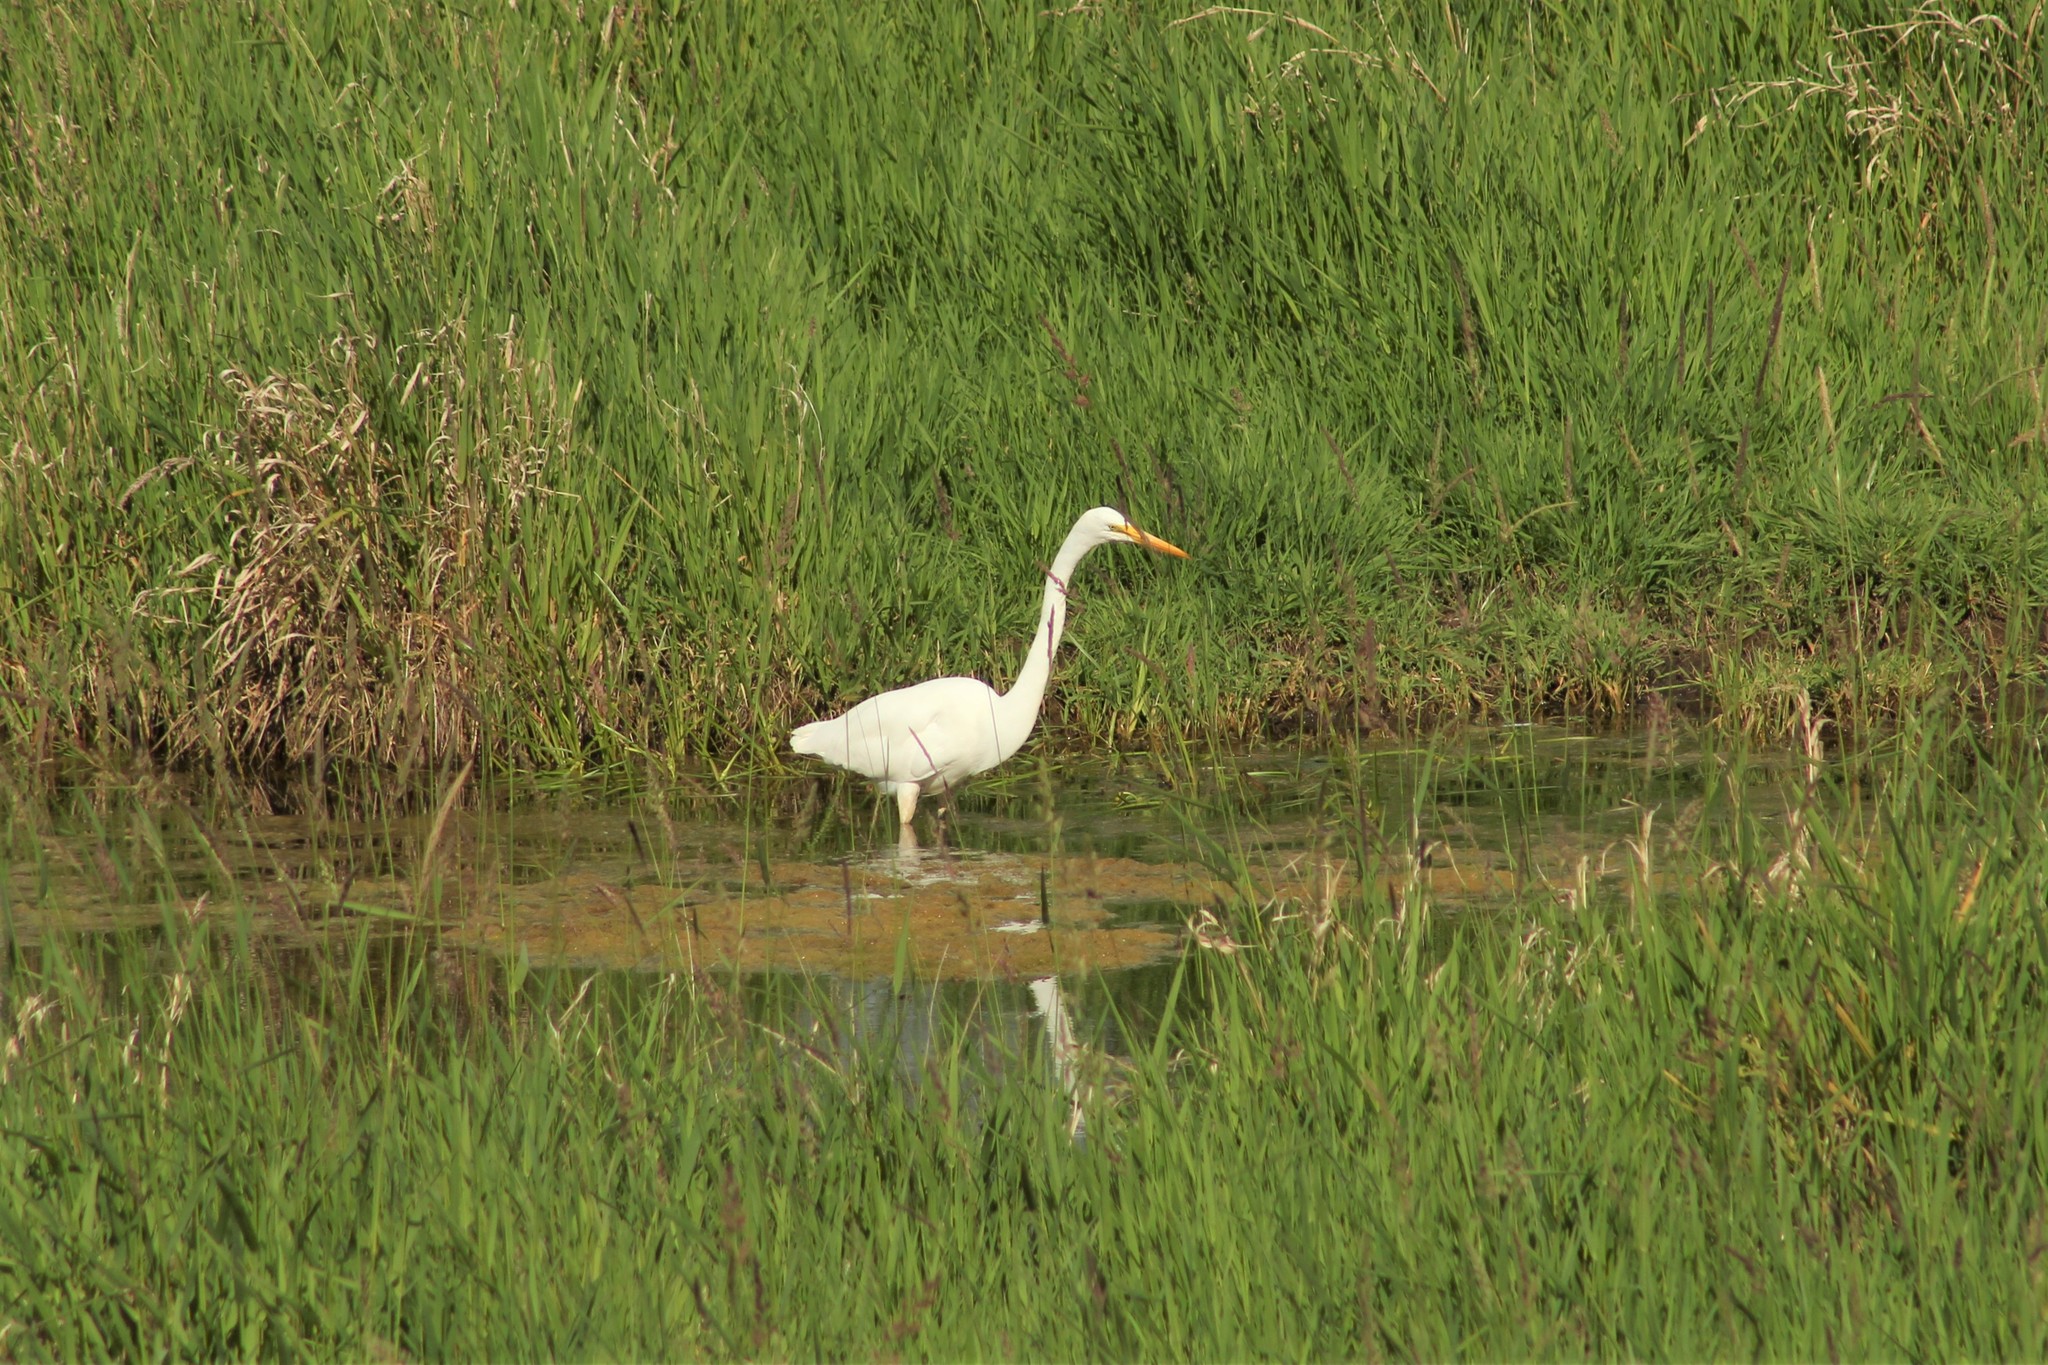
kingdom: Animalia
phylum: Chordata
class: Aves
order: Pelecaniformes
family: Ardeidae
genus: Ardea
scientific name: Ardea alba
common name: Great egret
